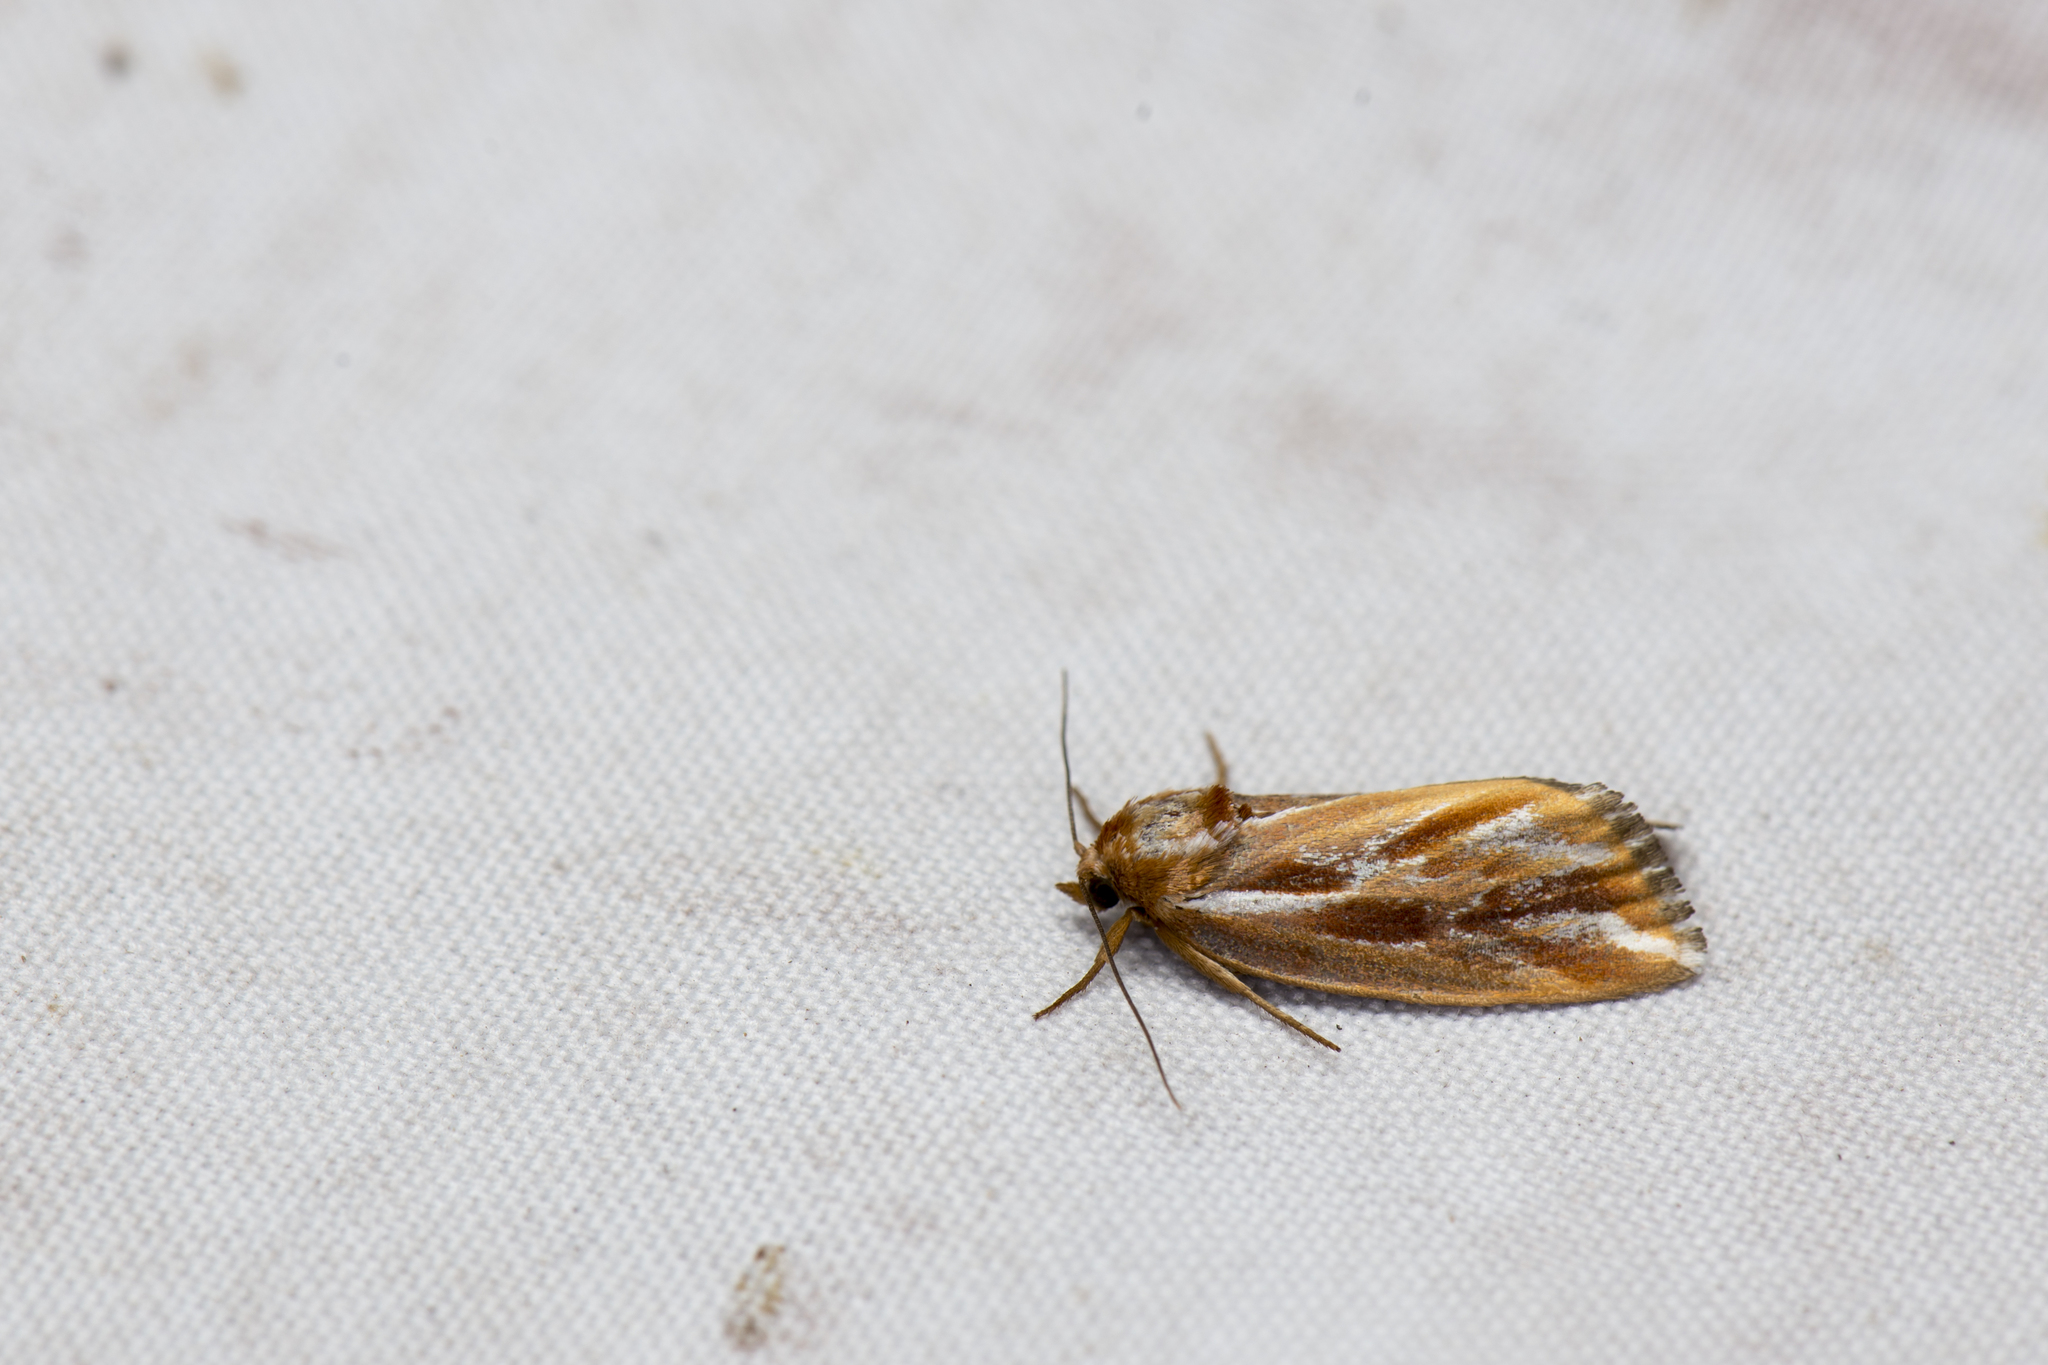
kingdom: Animalia
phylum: Arthropoda
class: Insecta
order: Lepidoptera
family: Noctuidae
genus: Narangodes
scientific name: Narangodes confluens
